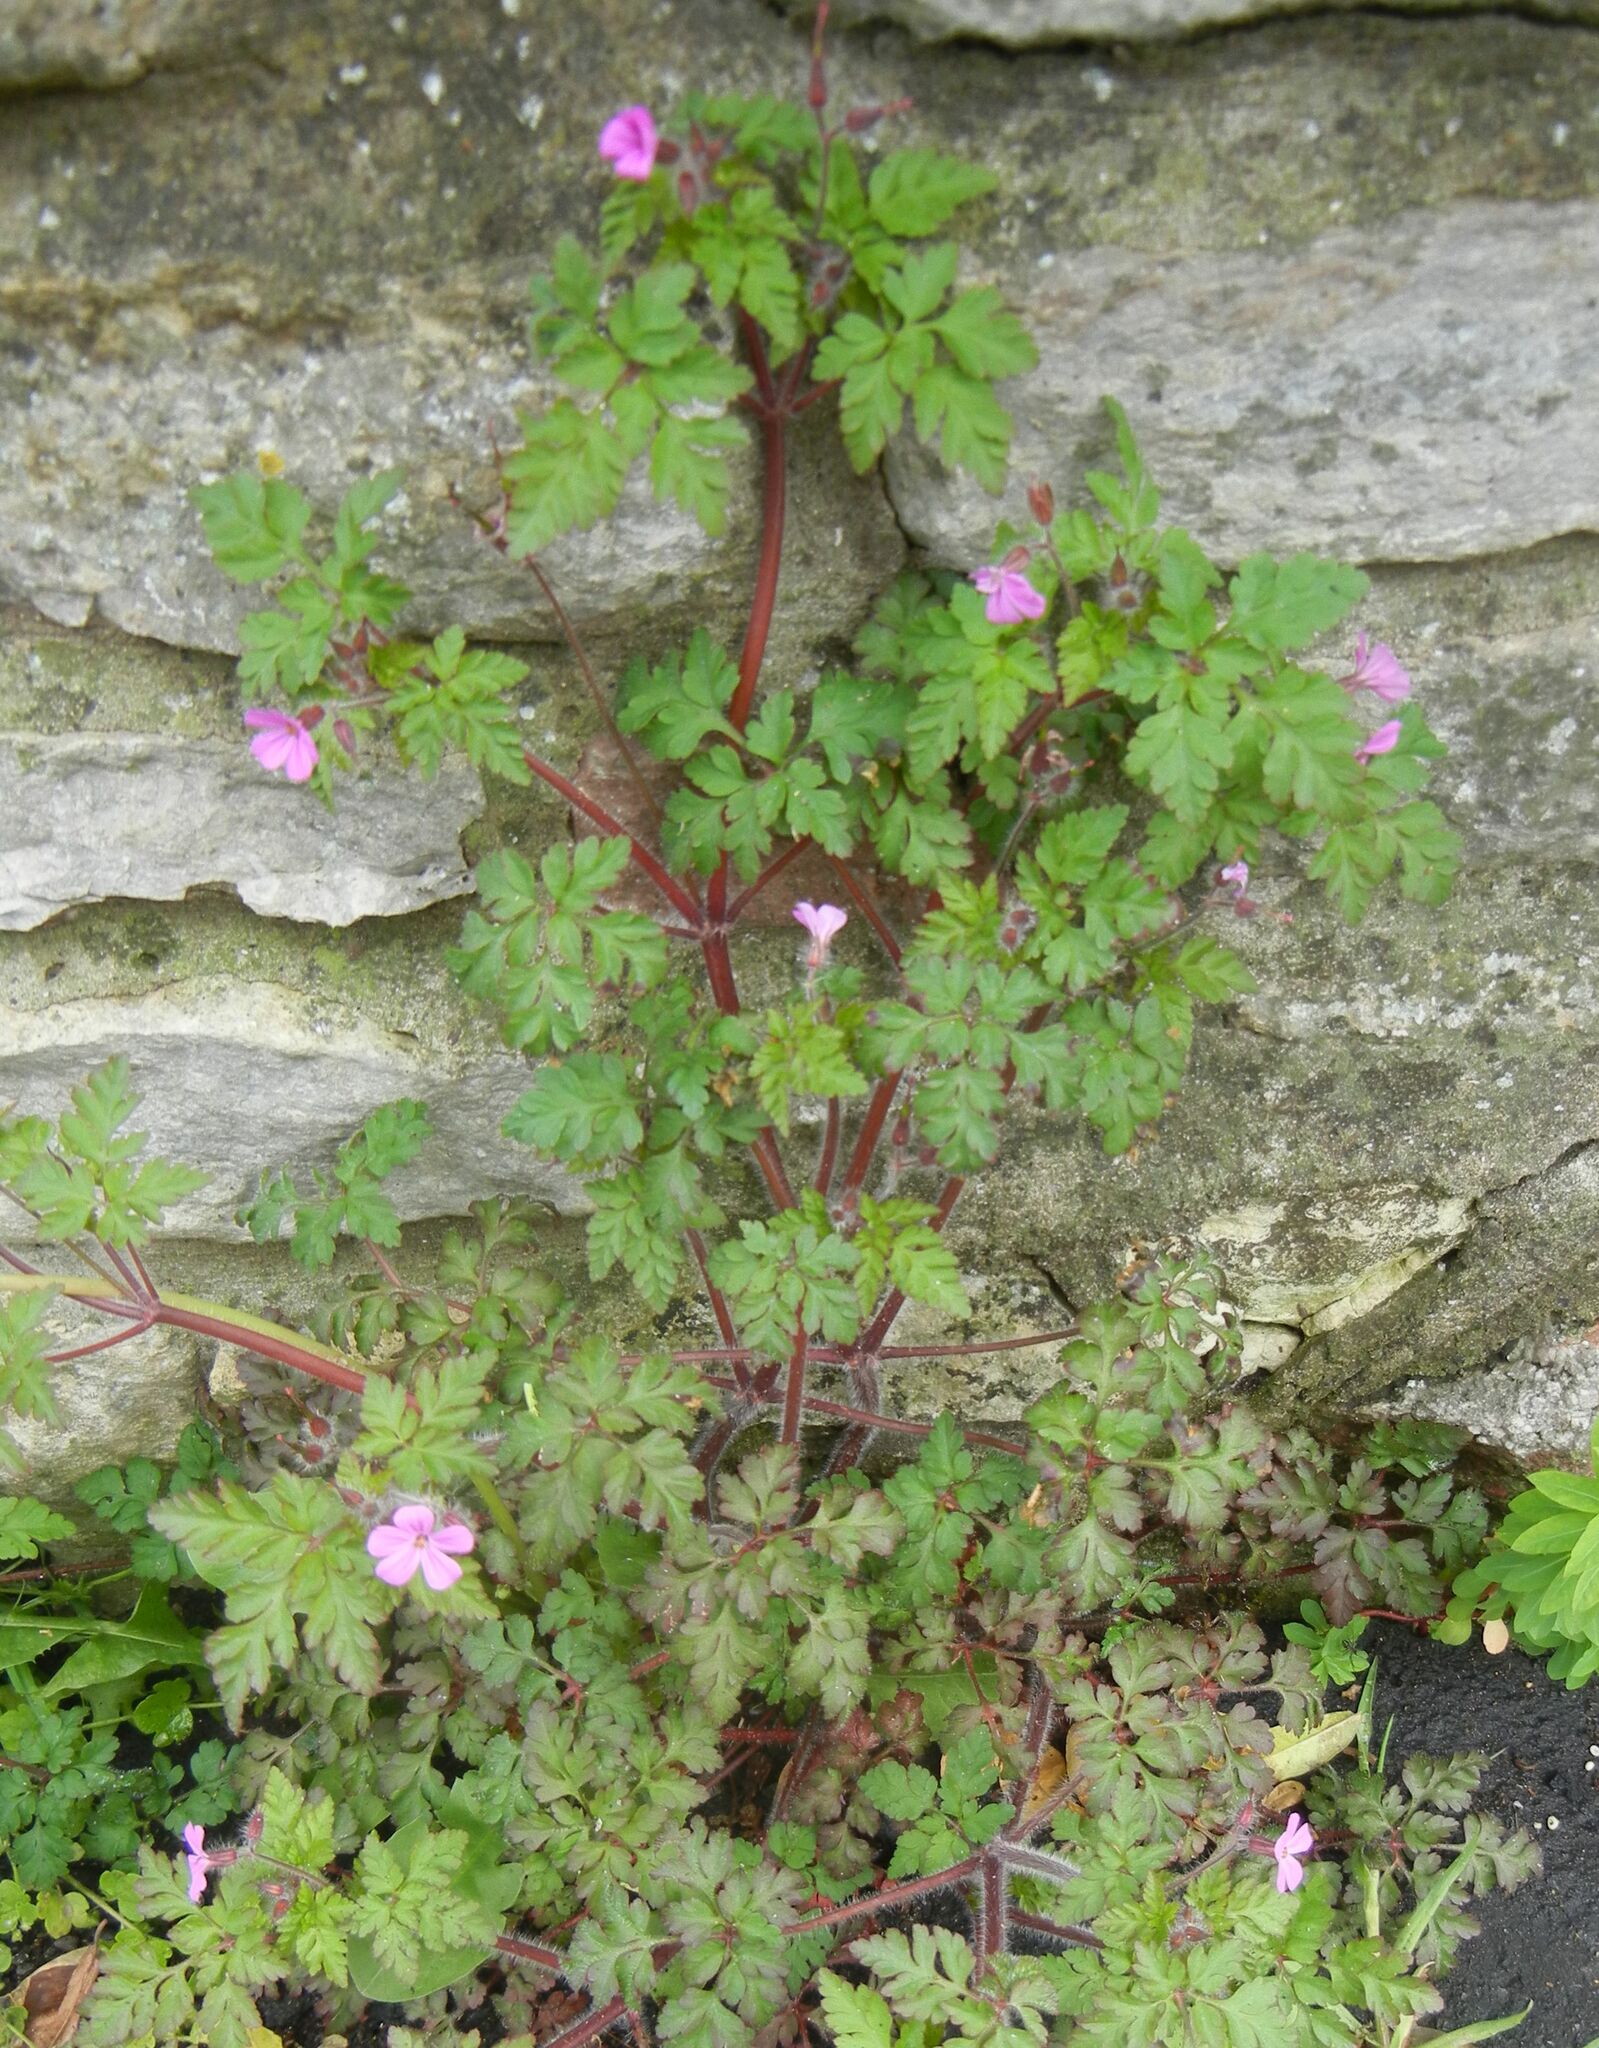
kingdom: Plantae
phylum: Tracheophyta
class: Magnoliopsida
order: Geraniales
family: Geraniaceae
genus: Geranium
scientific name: Geranium robertianum
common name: Herb-robert
